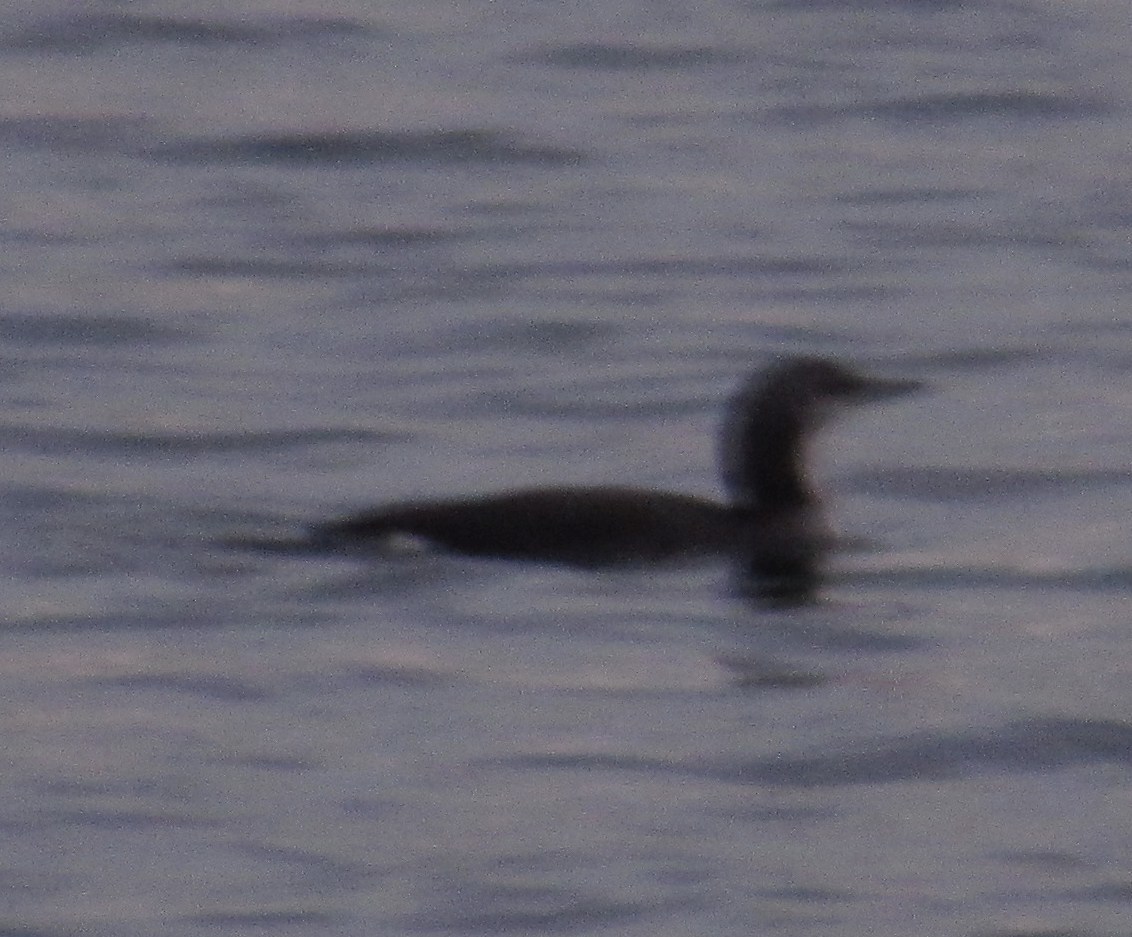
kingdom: Animalia
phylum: Chordata
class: Aves
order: Gaviiformes
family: Gaviidae
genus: Gavia
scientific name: Gavia arctica
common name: Black-throated loon
